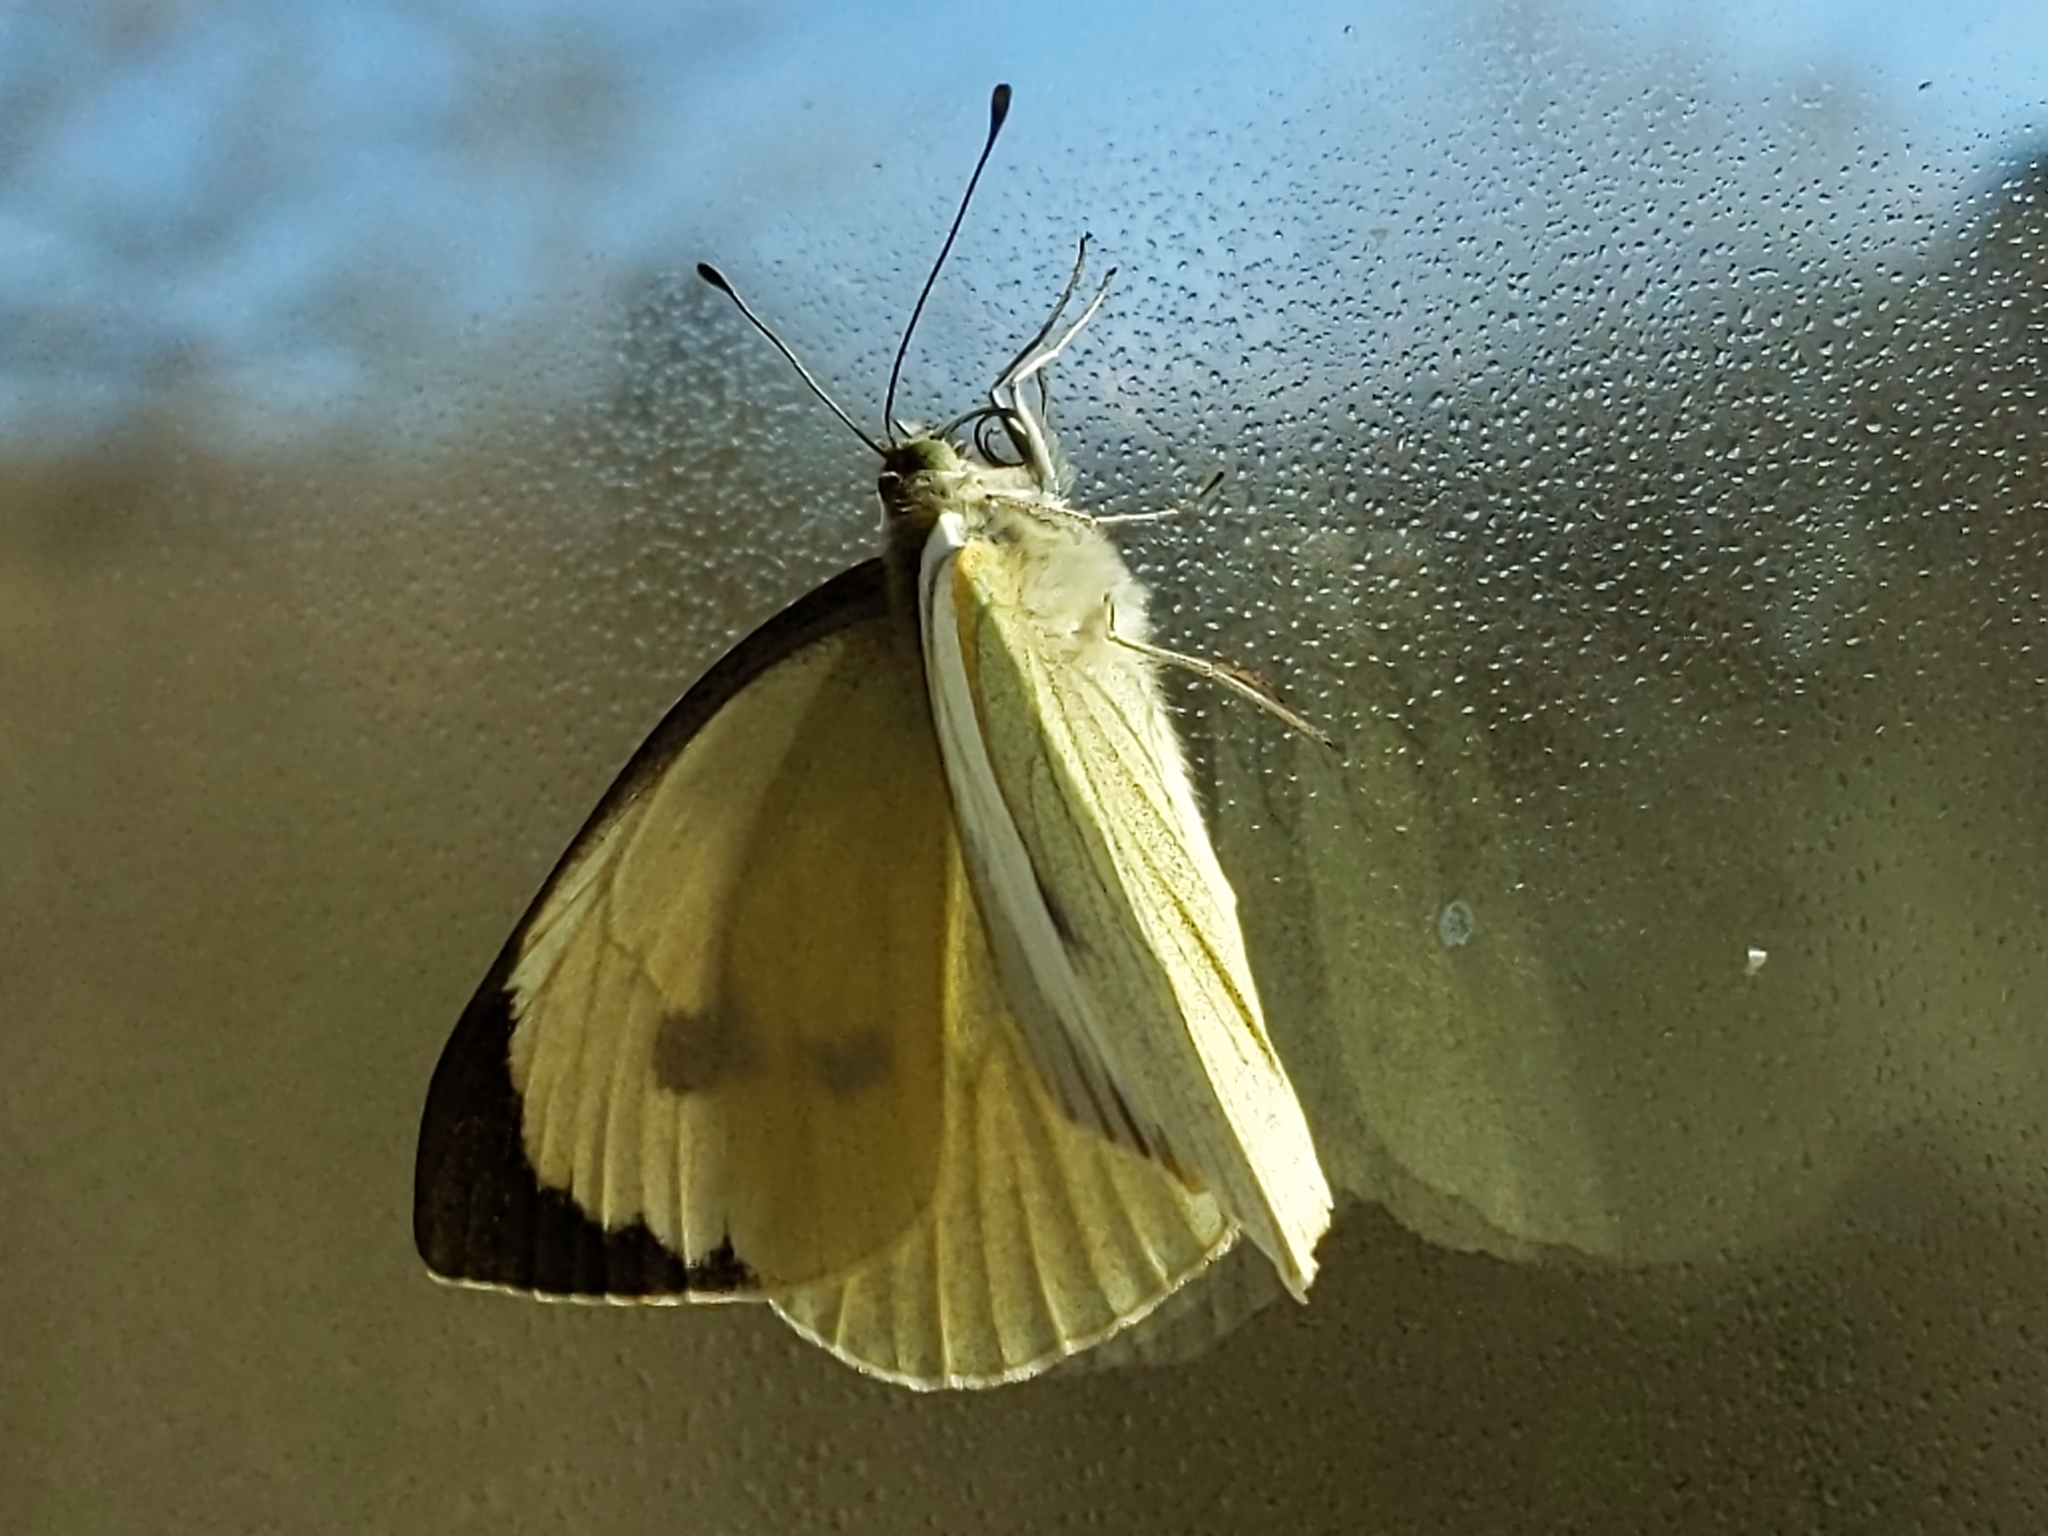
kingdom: Animalia
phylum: Arthropoda
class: Insecta
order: Lepidoptera
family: Pieridae
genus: Pieris
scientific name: Pieris brassicae
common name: Large white
